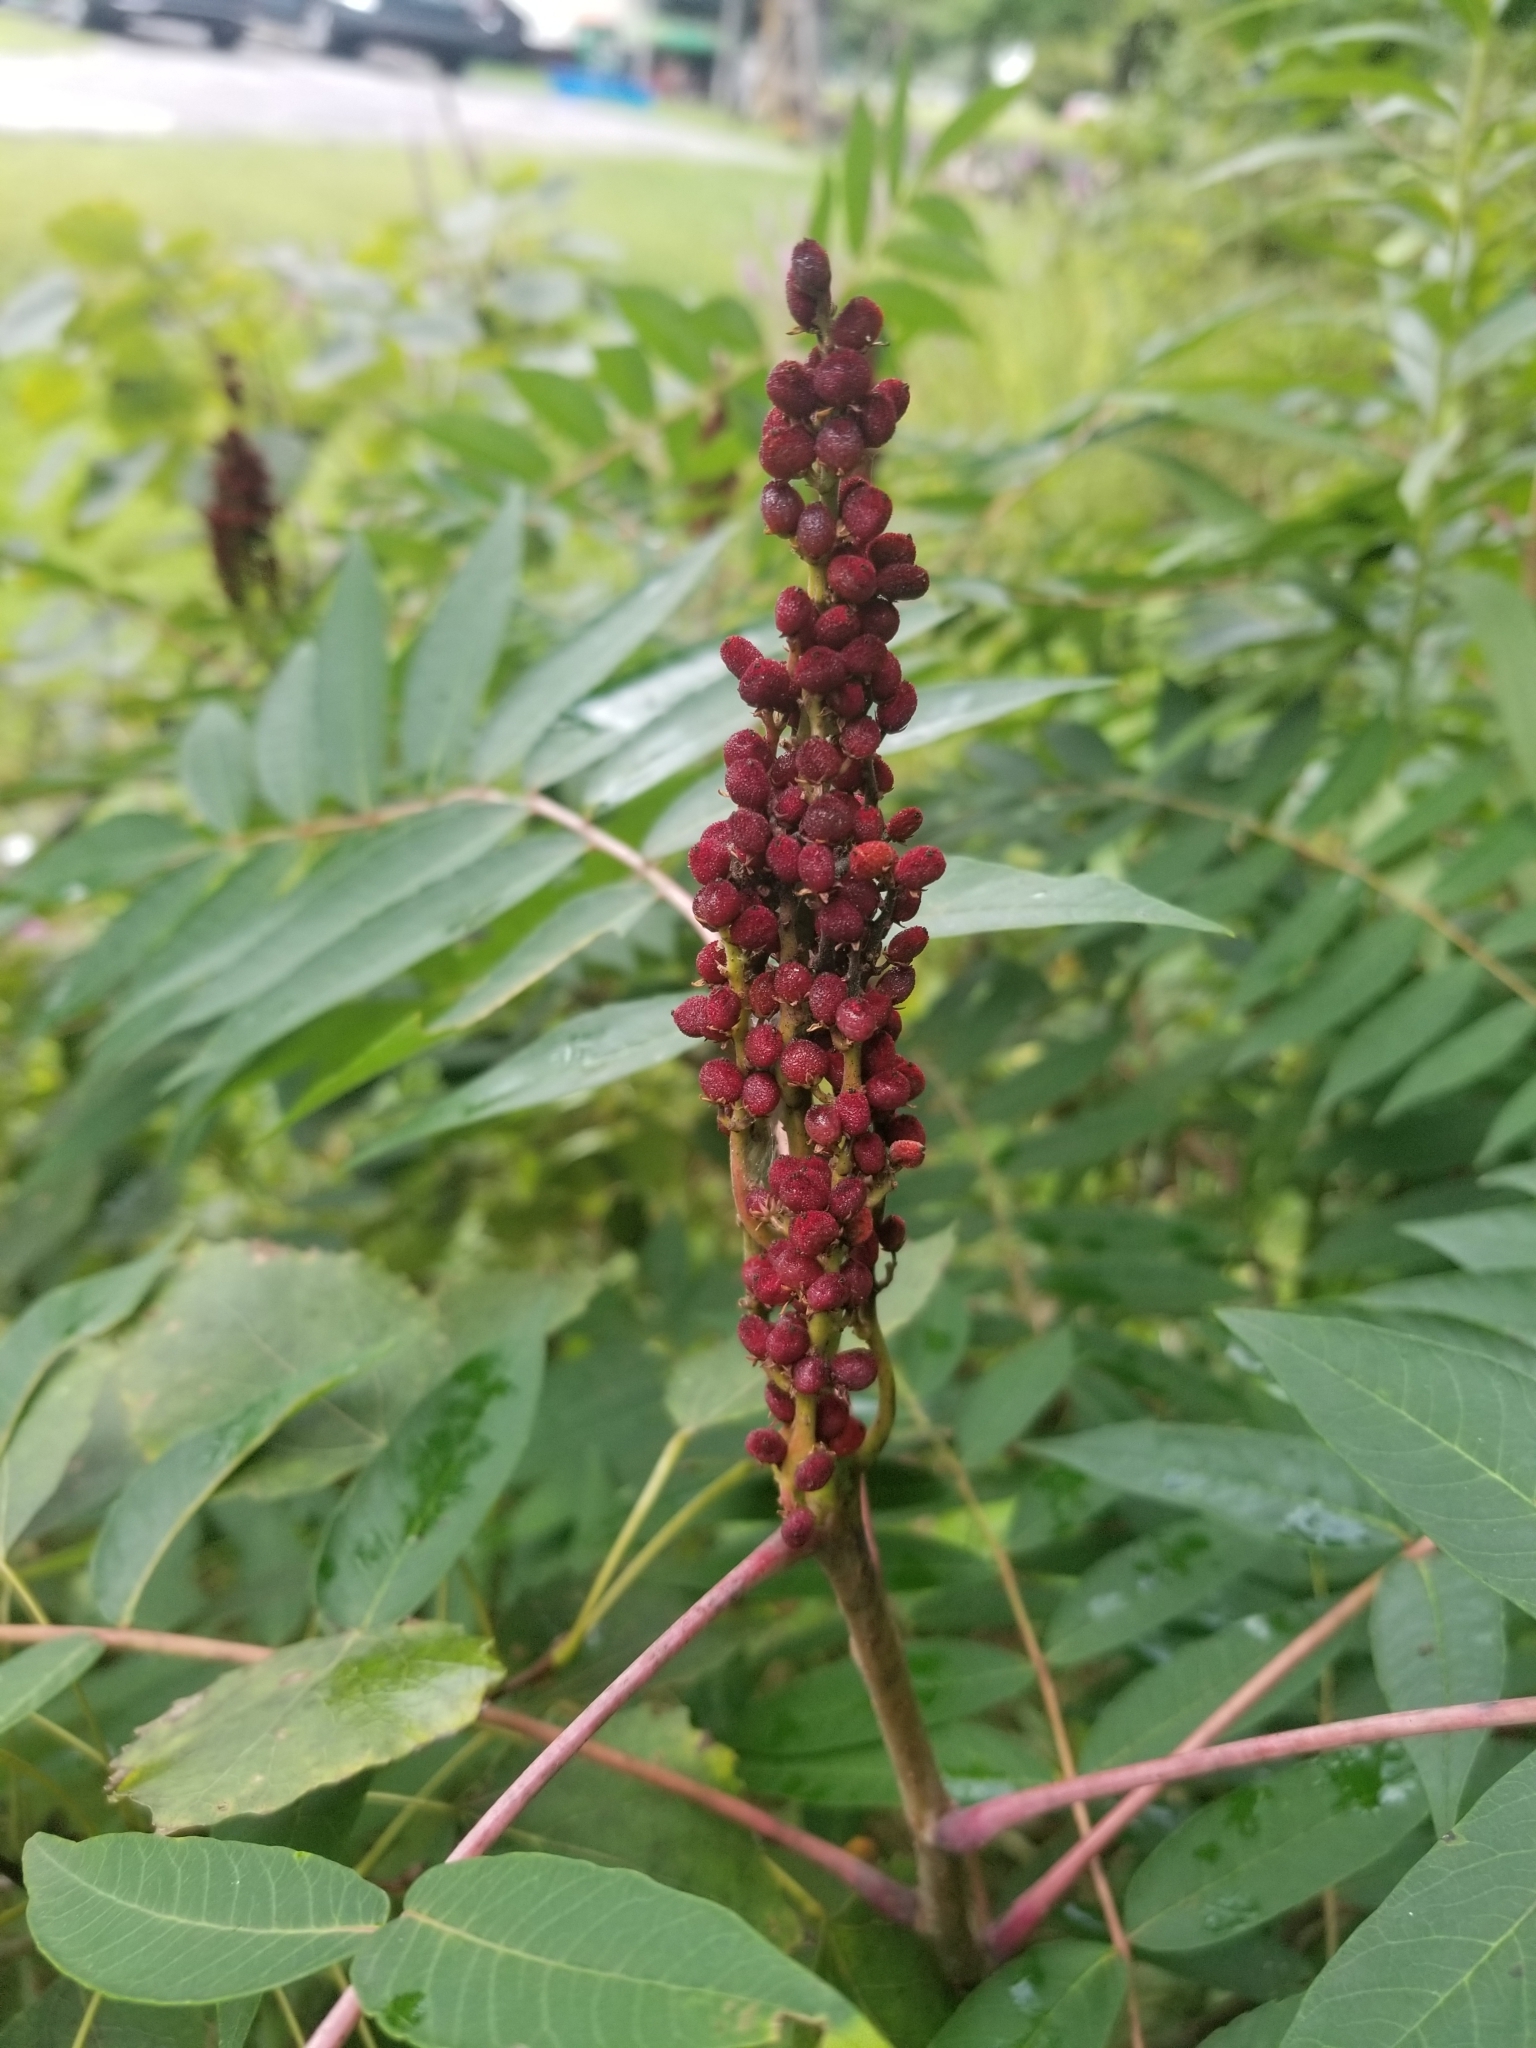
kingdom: Plantae
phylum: Tracheophyta
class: Magnoliopsida
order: Sapindales
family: Anacardiaceae
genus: Rhus
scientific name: Rhus glabra
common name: Scarlet sumac
